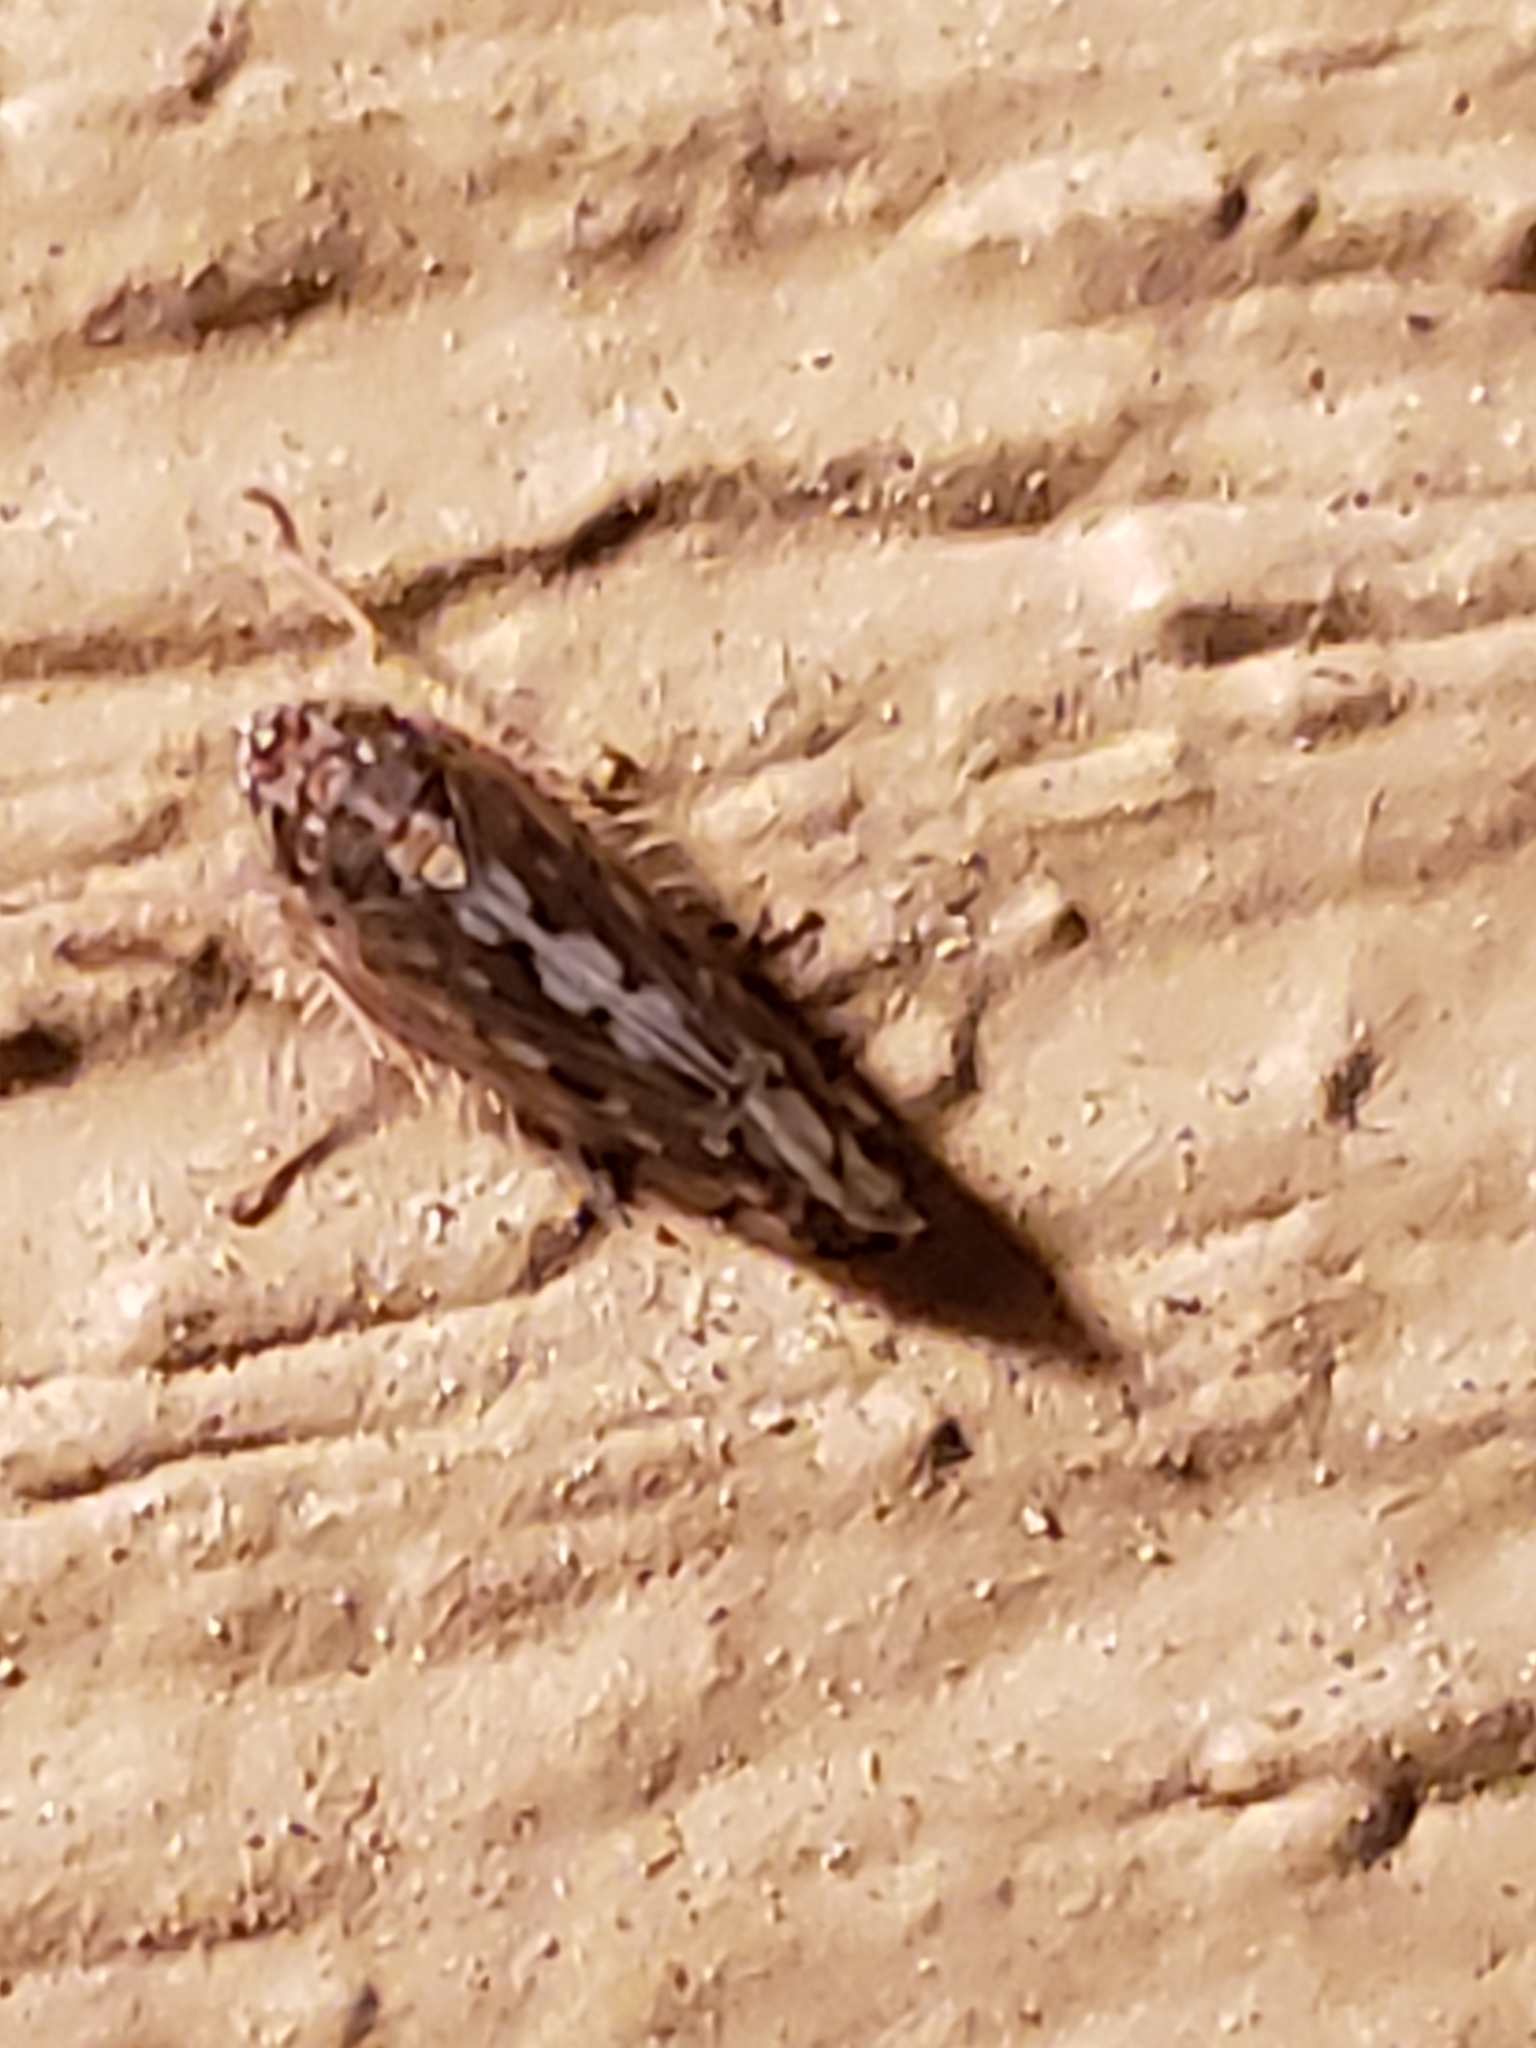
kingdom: Animalia
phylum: Arthropoda
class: Insecta
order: Hemiptera
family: Cicadellidae
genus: Osbornellus
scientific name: Osbornellus clarus
